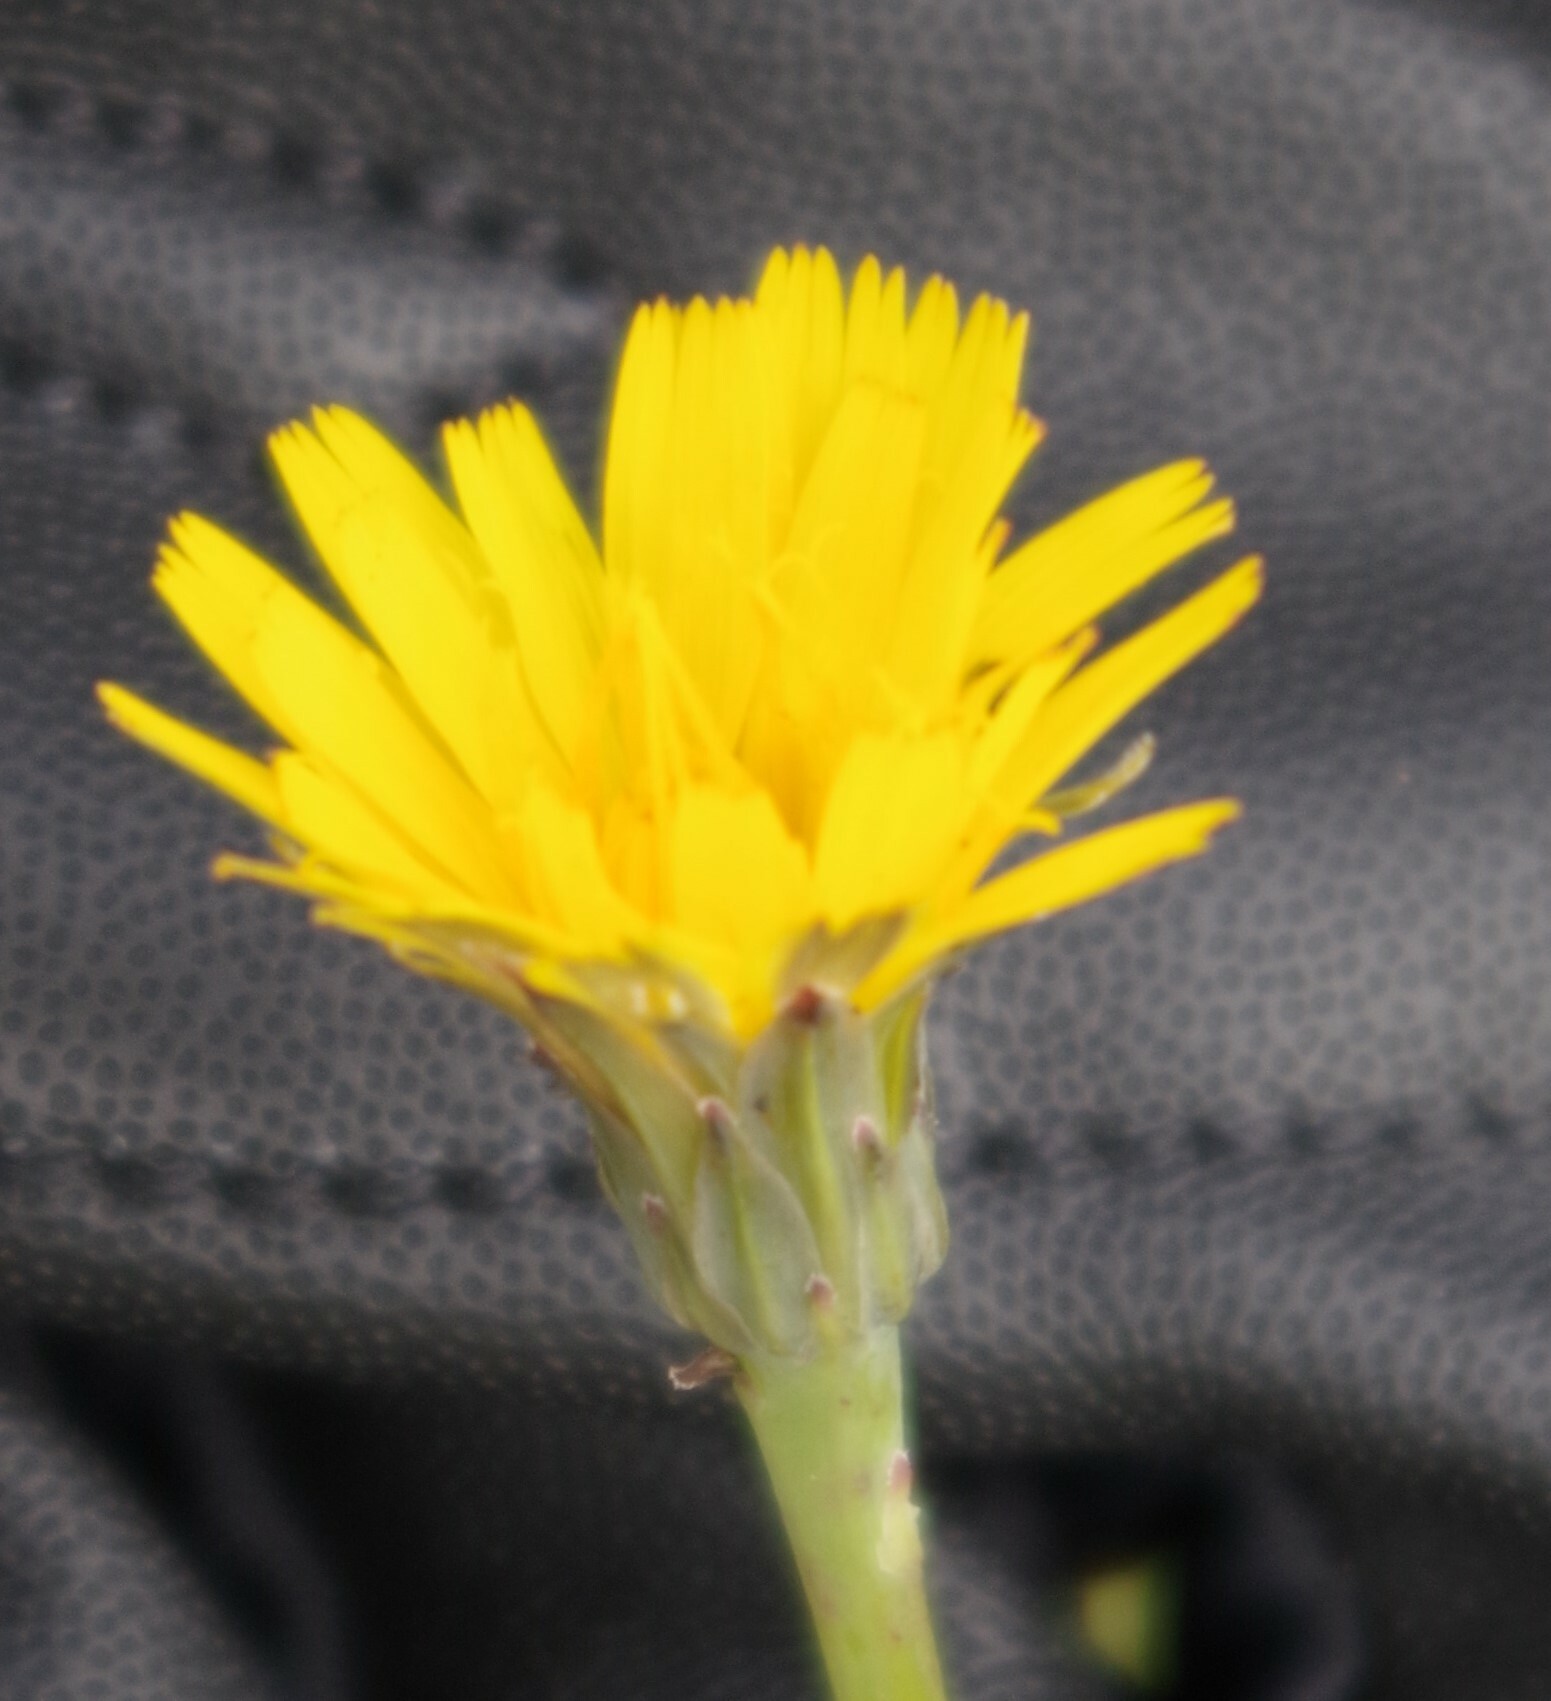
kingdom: Plantae
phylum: Tracheophyta
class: Magnoliopsida
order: Asterales
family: Asteraceae
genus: Hypochaeris
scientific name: Hypochaeris radicata
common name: Flatweed
